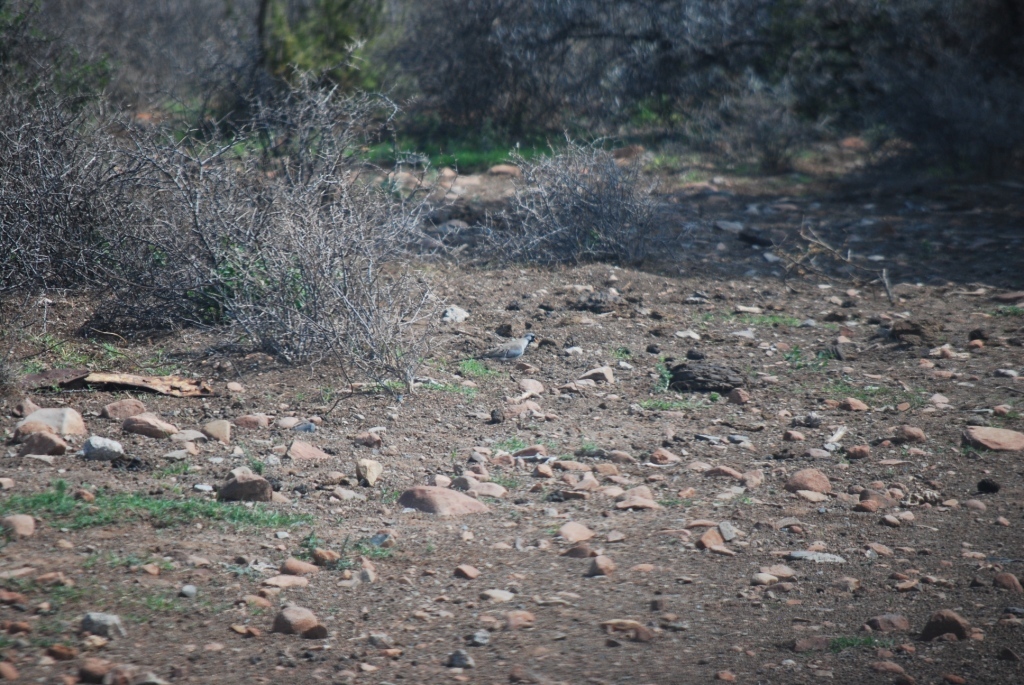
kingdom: Animalia
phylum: Chordata
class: Aves
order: Columbiformes
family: Columbidae
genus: Oena
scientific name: Oena capensis
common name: Namaqua dove
